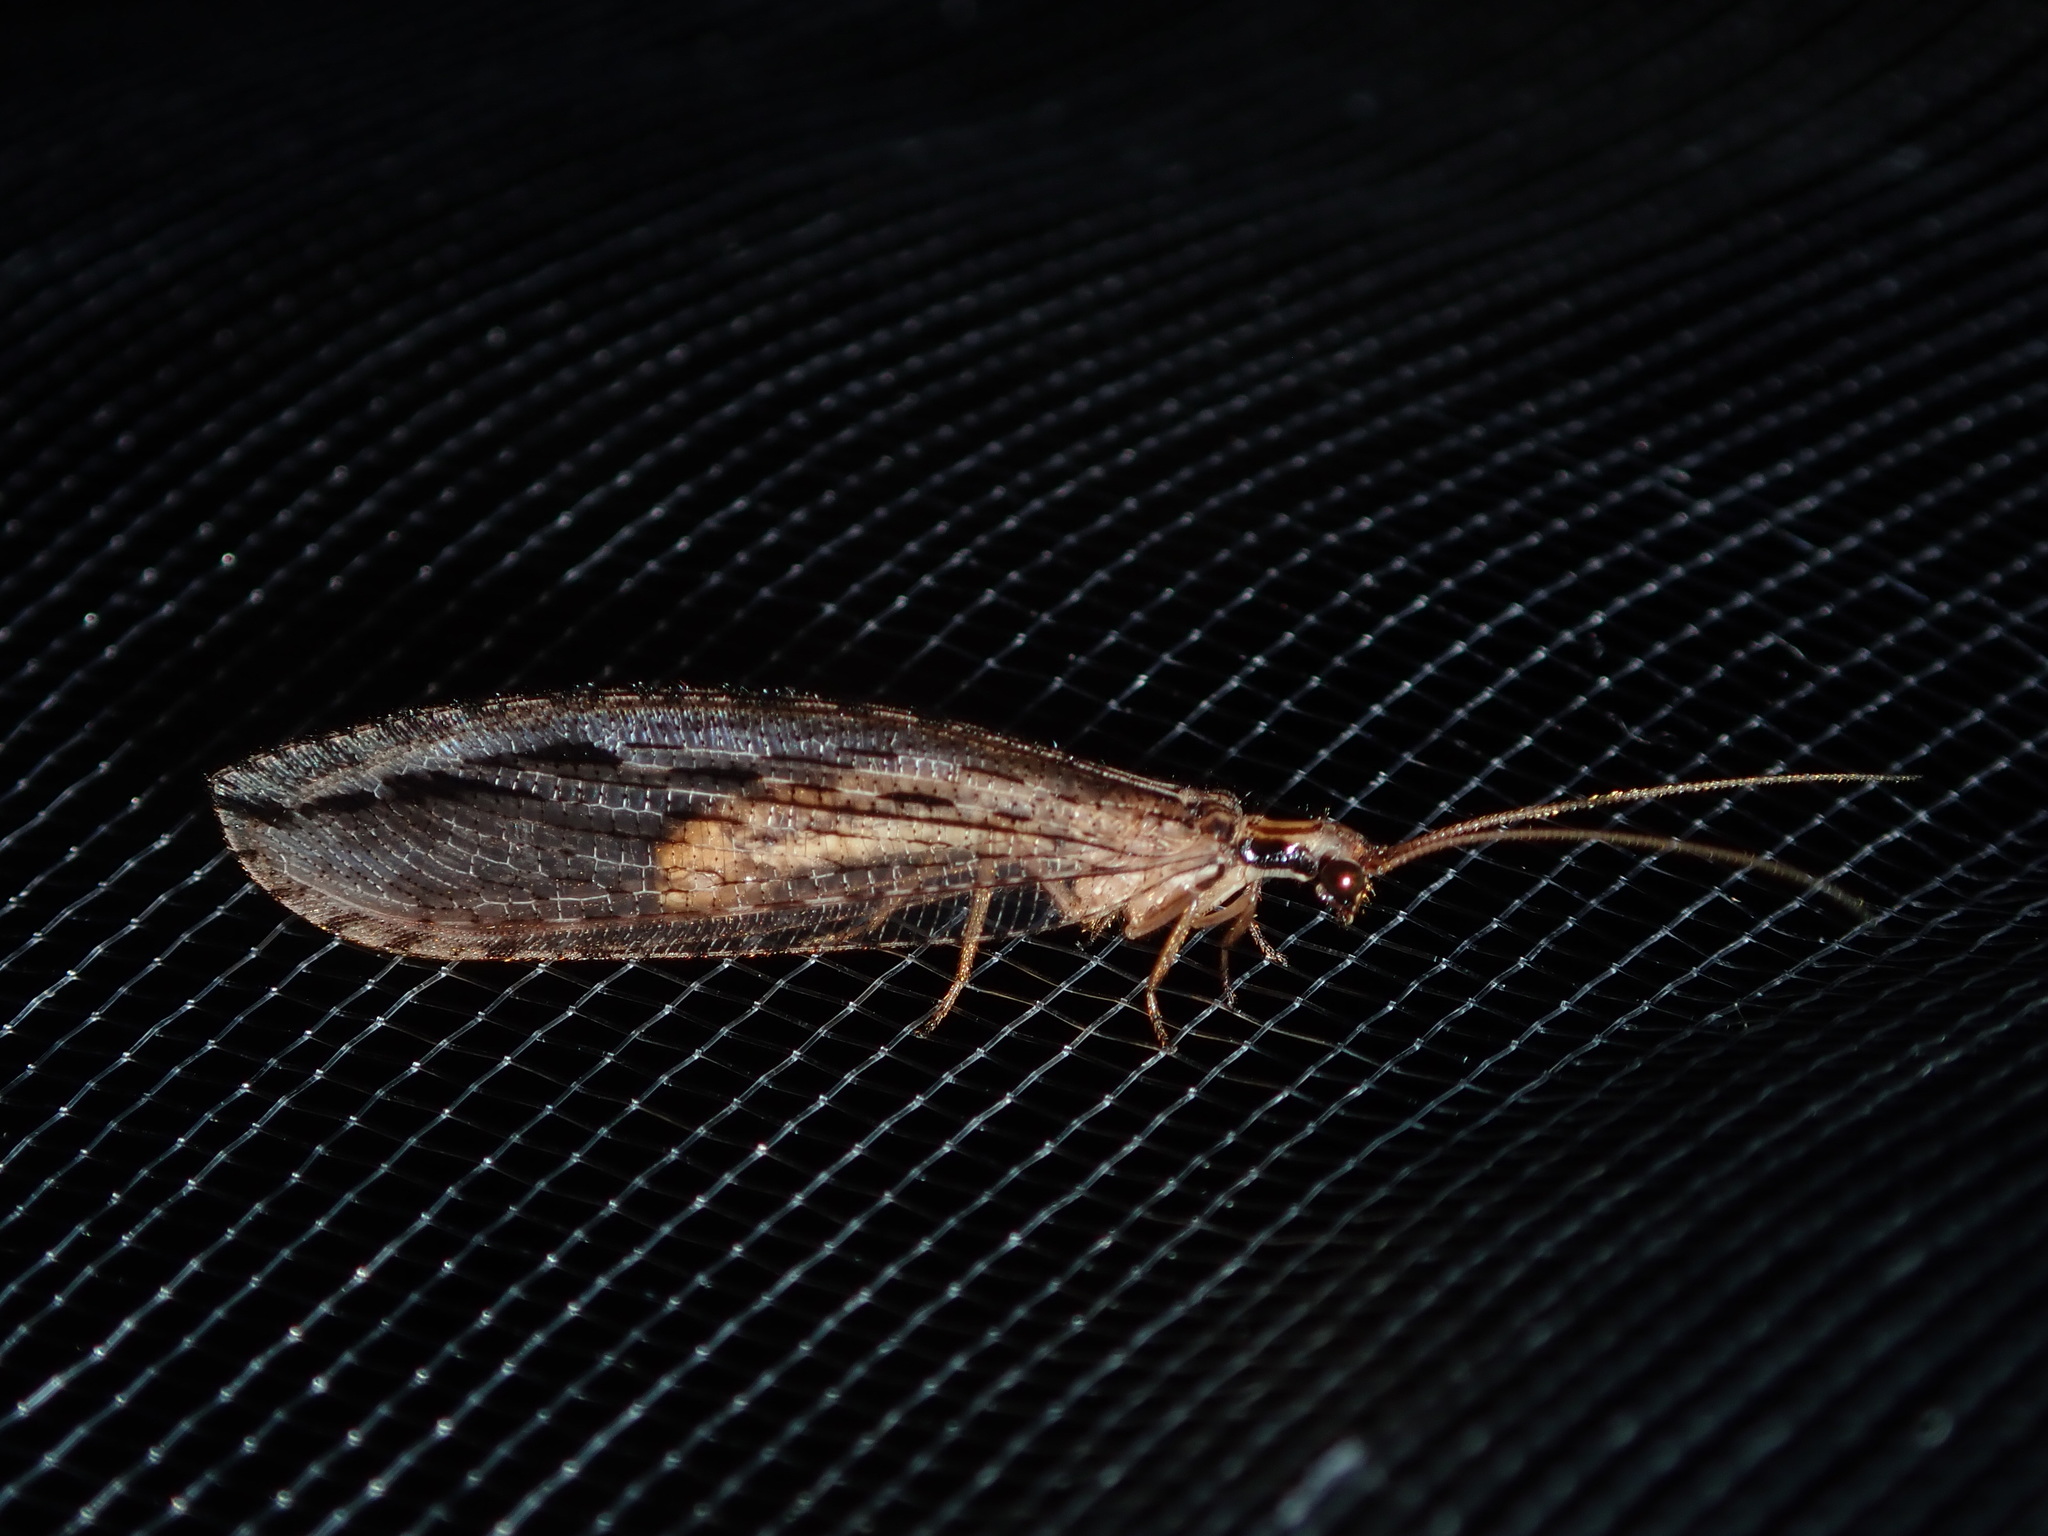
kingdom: Animalia
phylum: Arthropoda
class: Insecta
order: Neuroptera
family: Osmylidae
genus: Stenosmylus
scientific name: Stenosmylus stenopterus
